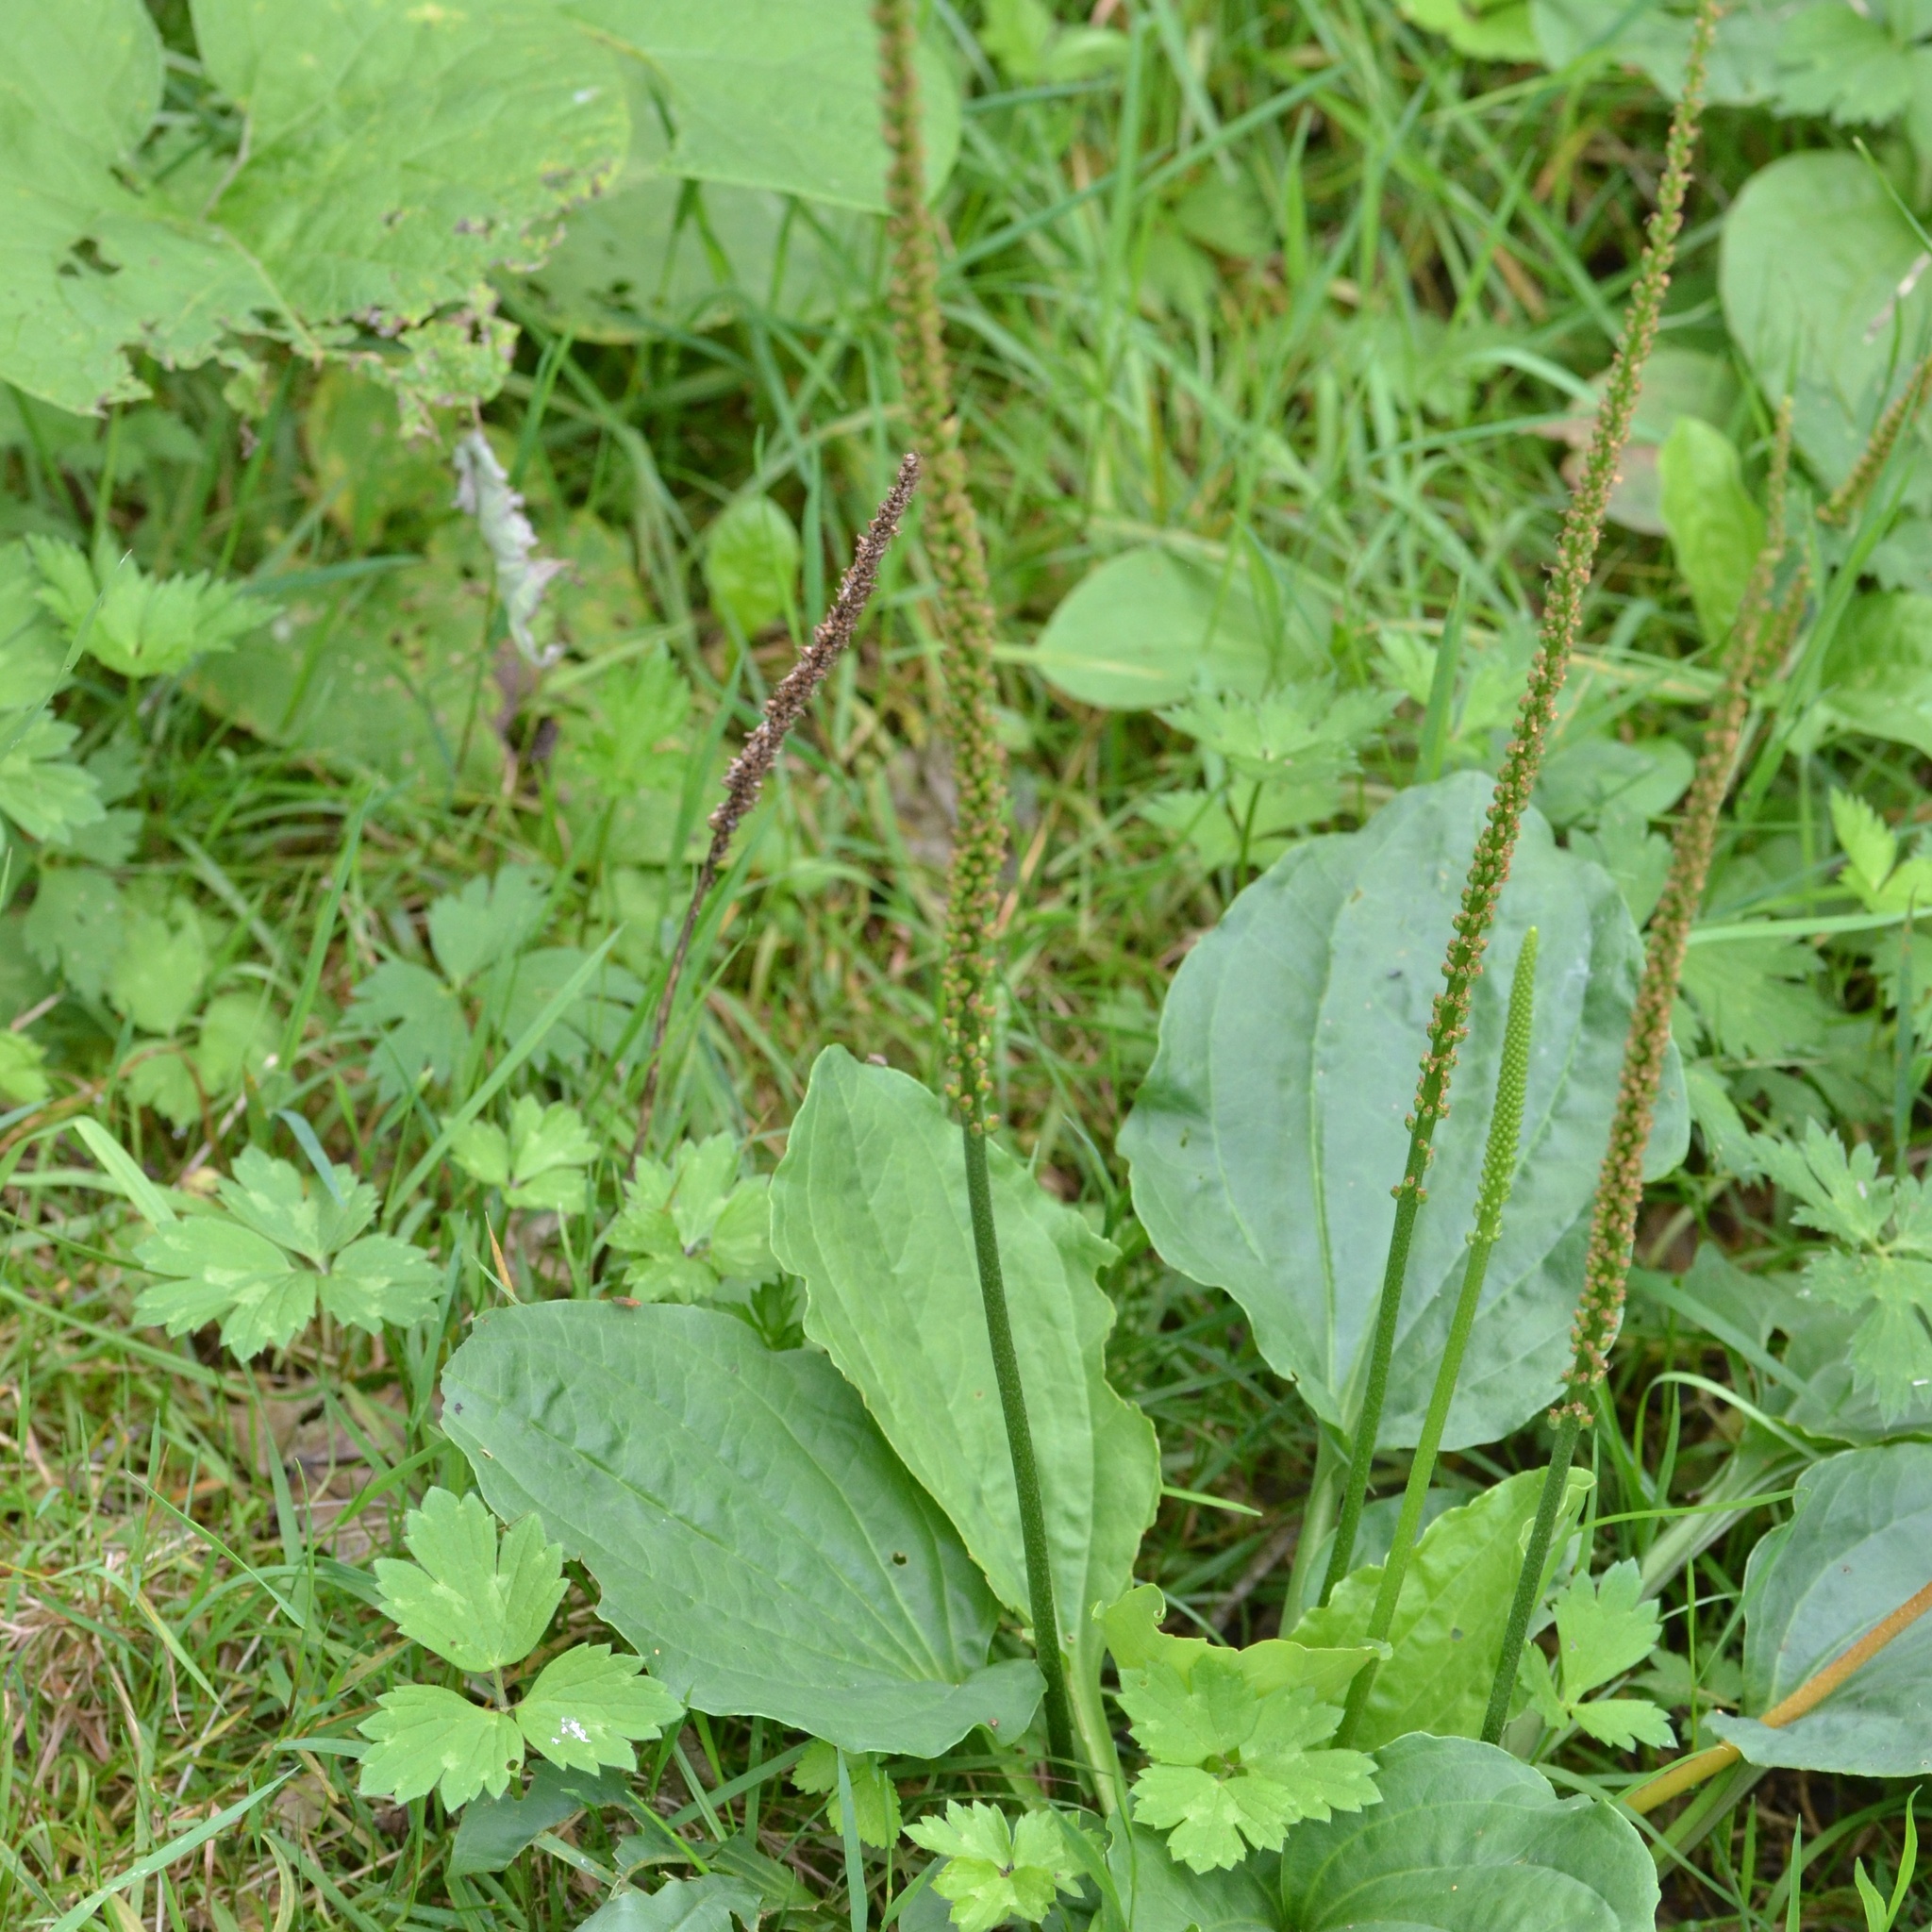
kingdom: Plantae
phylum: Tracheophyta
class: Magnoliopsida
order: Lamiales
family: Plantaginaceae
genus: Plantago
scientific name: Plantago major
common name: Common plantain
